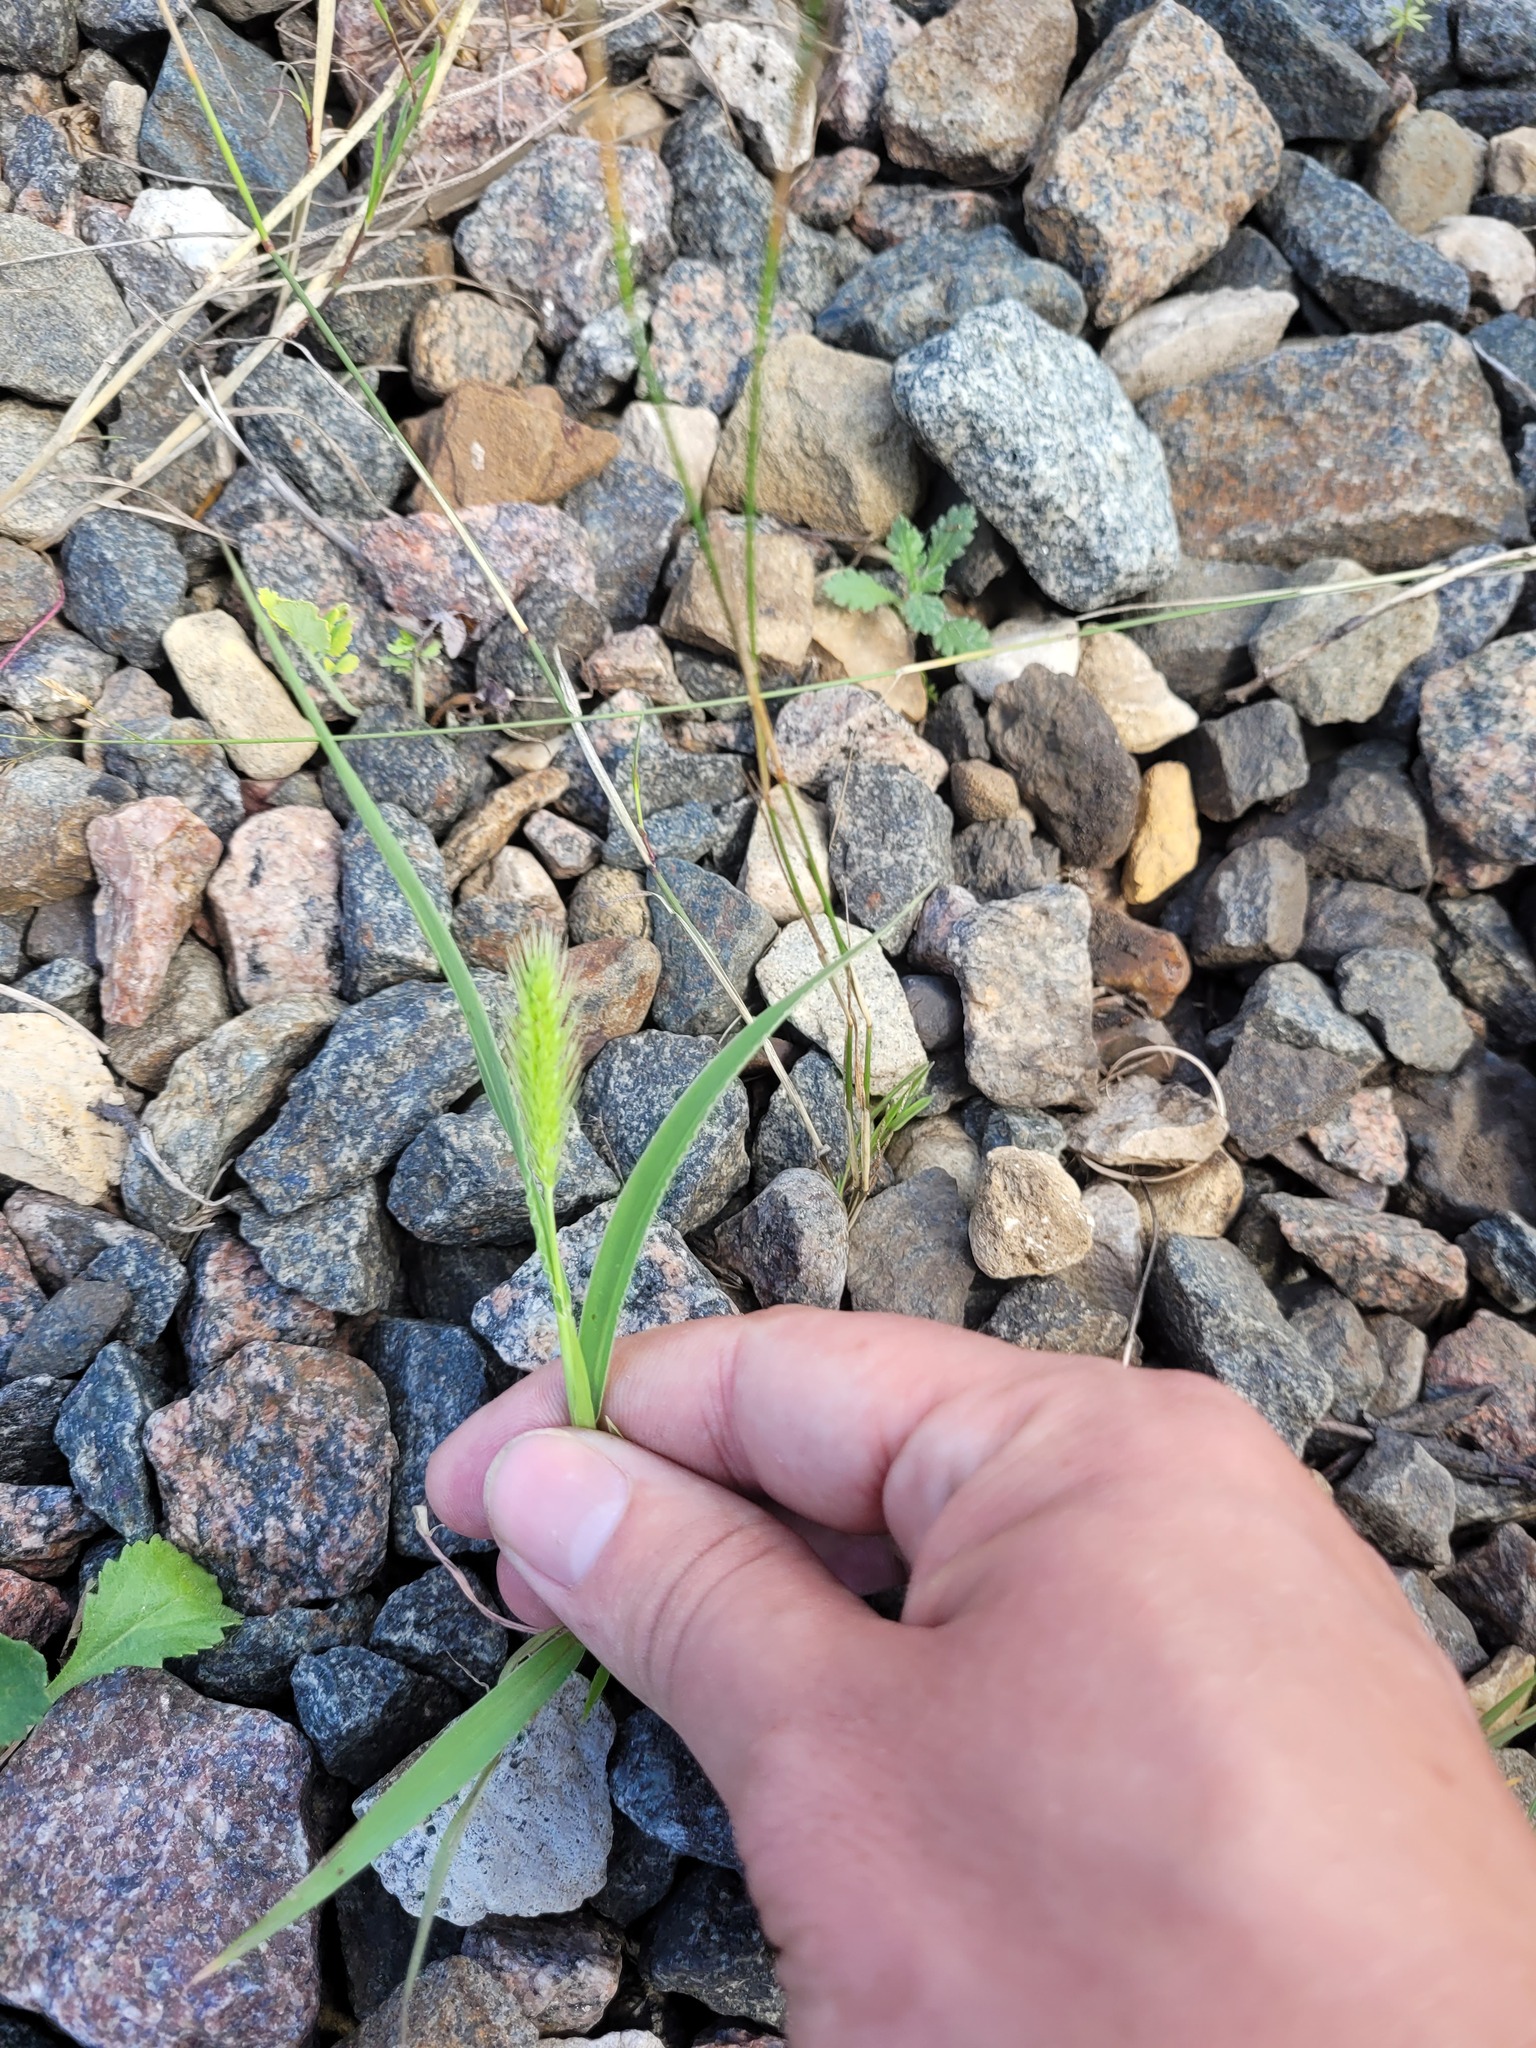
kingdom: Plantae
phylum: Tracheophyta
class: Liliopsida
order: Poales
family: Poaceae
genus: Setaria
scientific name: Setaria viridis
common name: Green bristlegrass
